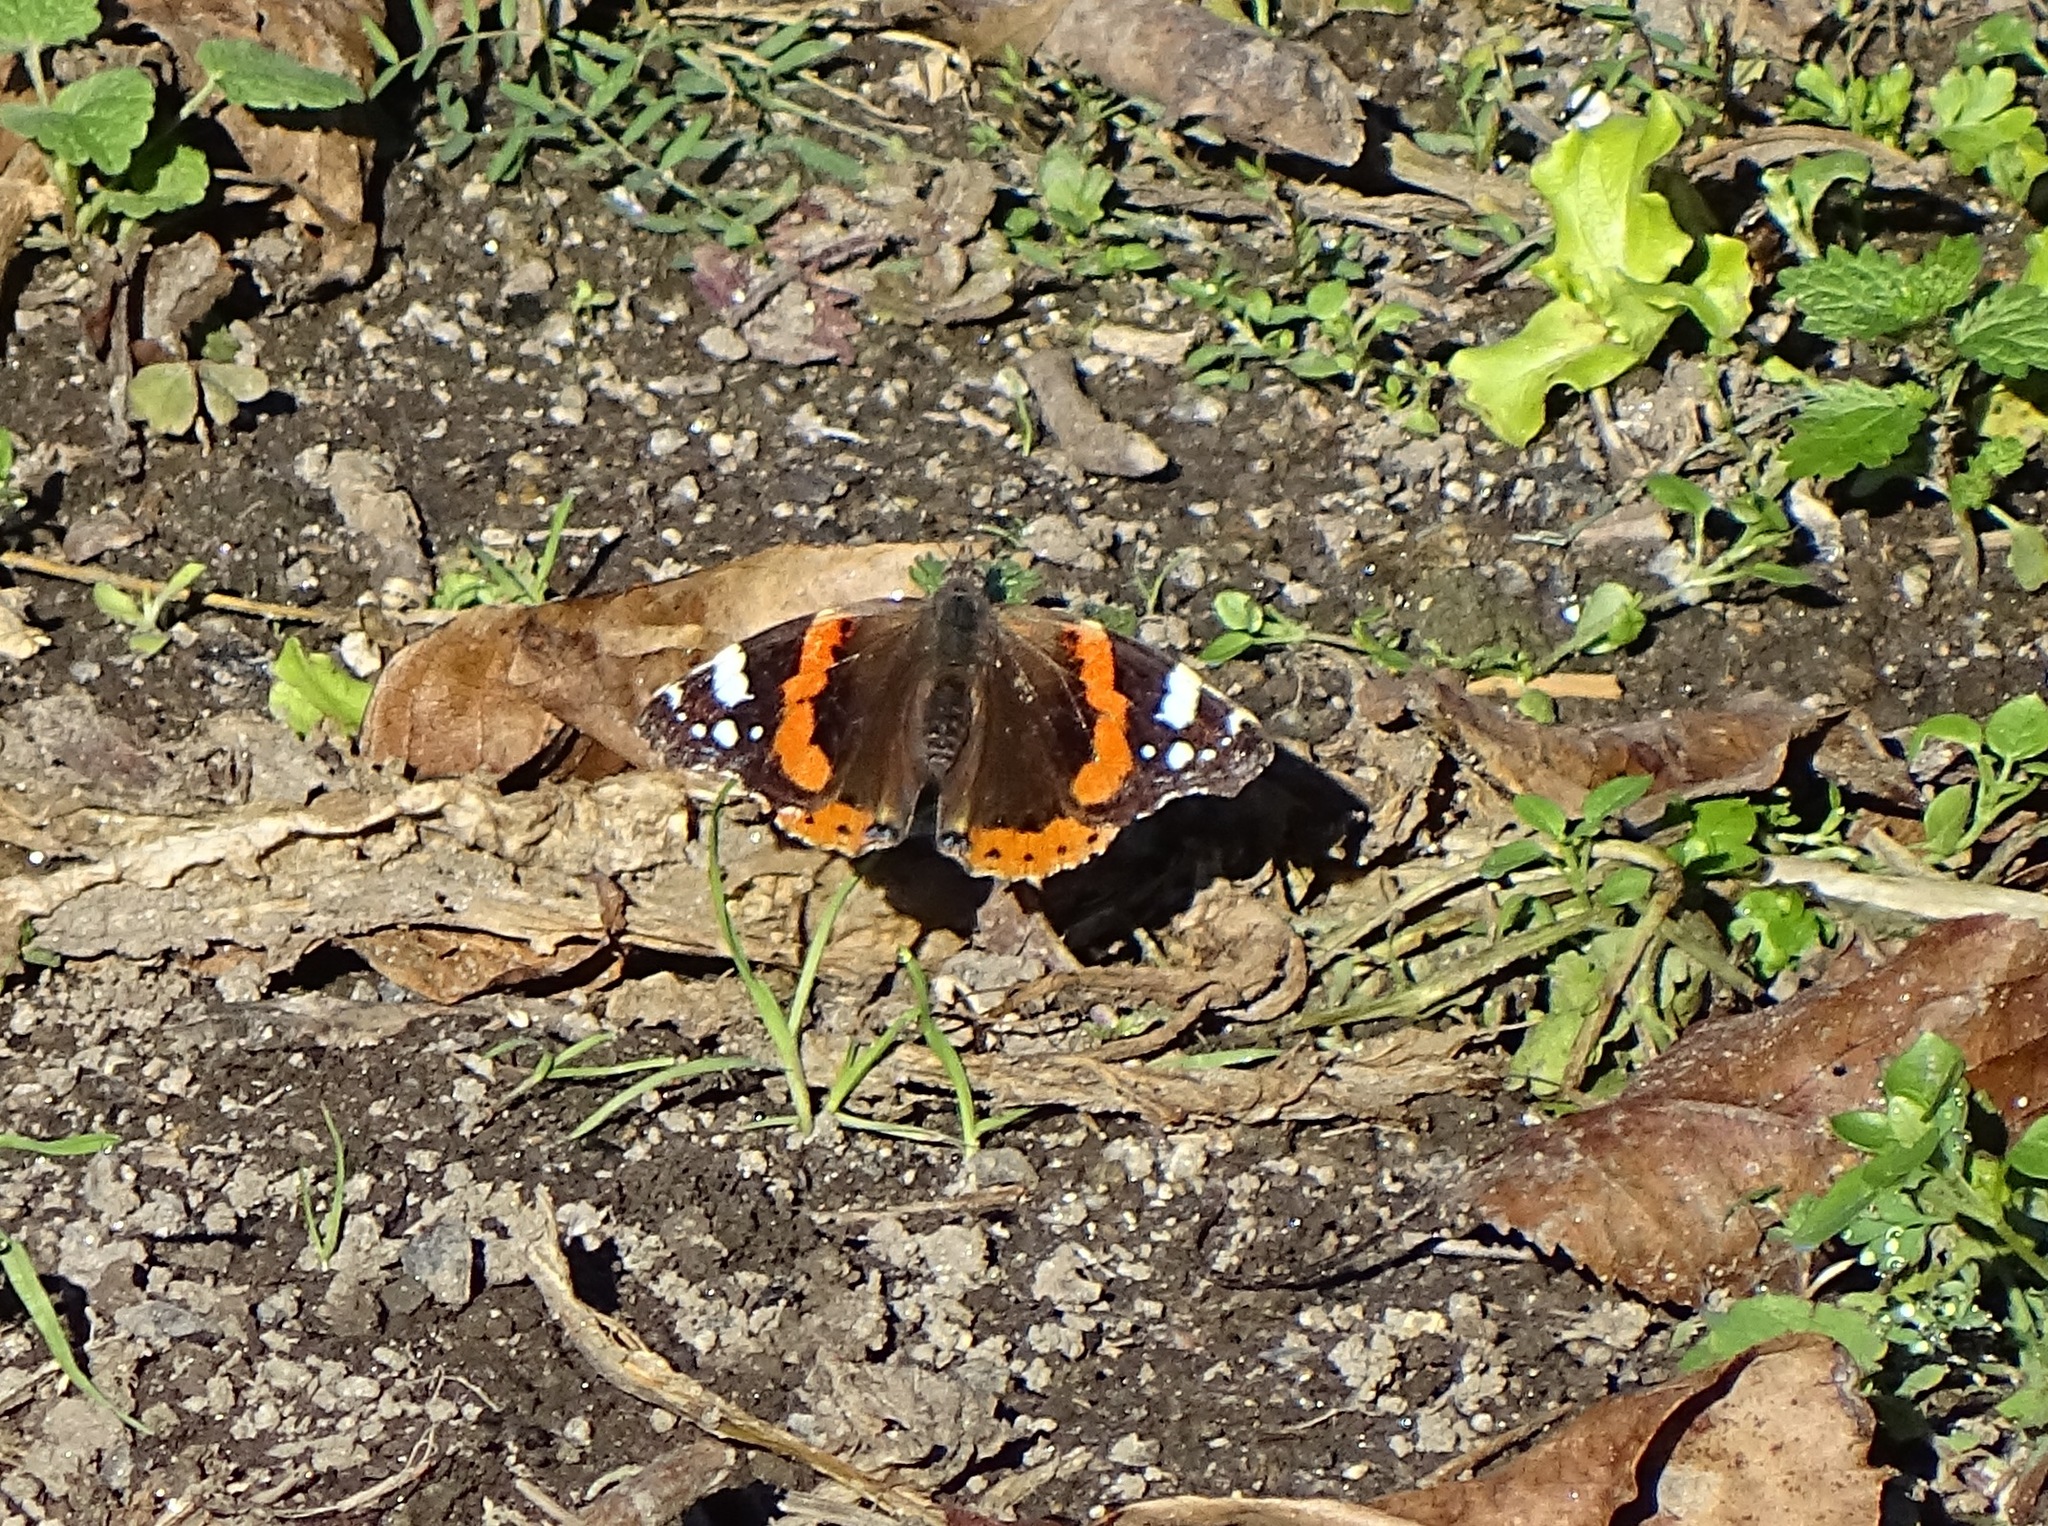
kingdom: Animalia
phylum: Arthropoda
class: Insecta
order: Lepidoptera
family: Nymphalidae
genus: Vanessa
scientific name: Vanessa atalanta
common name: Red admiral
